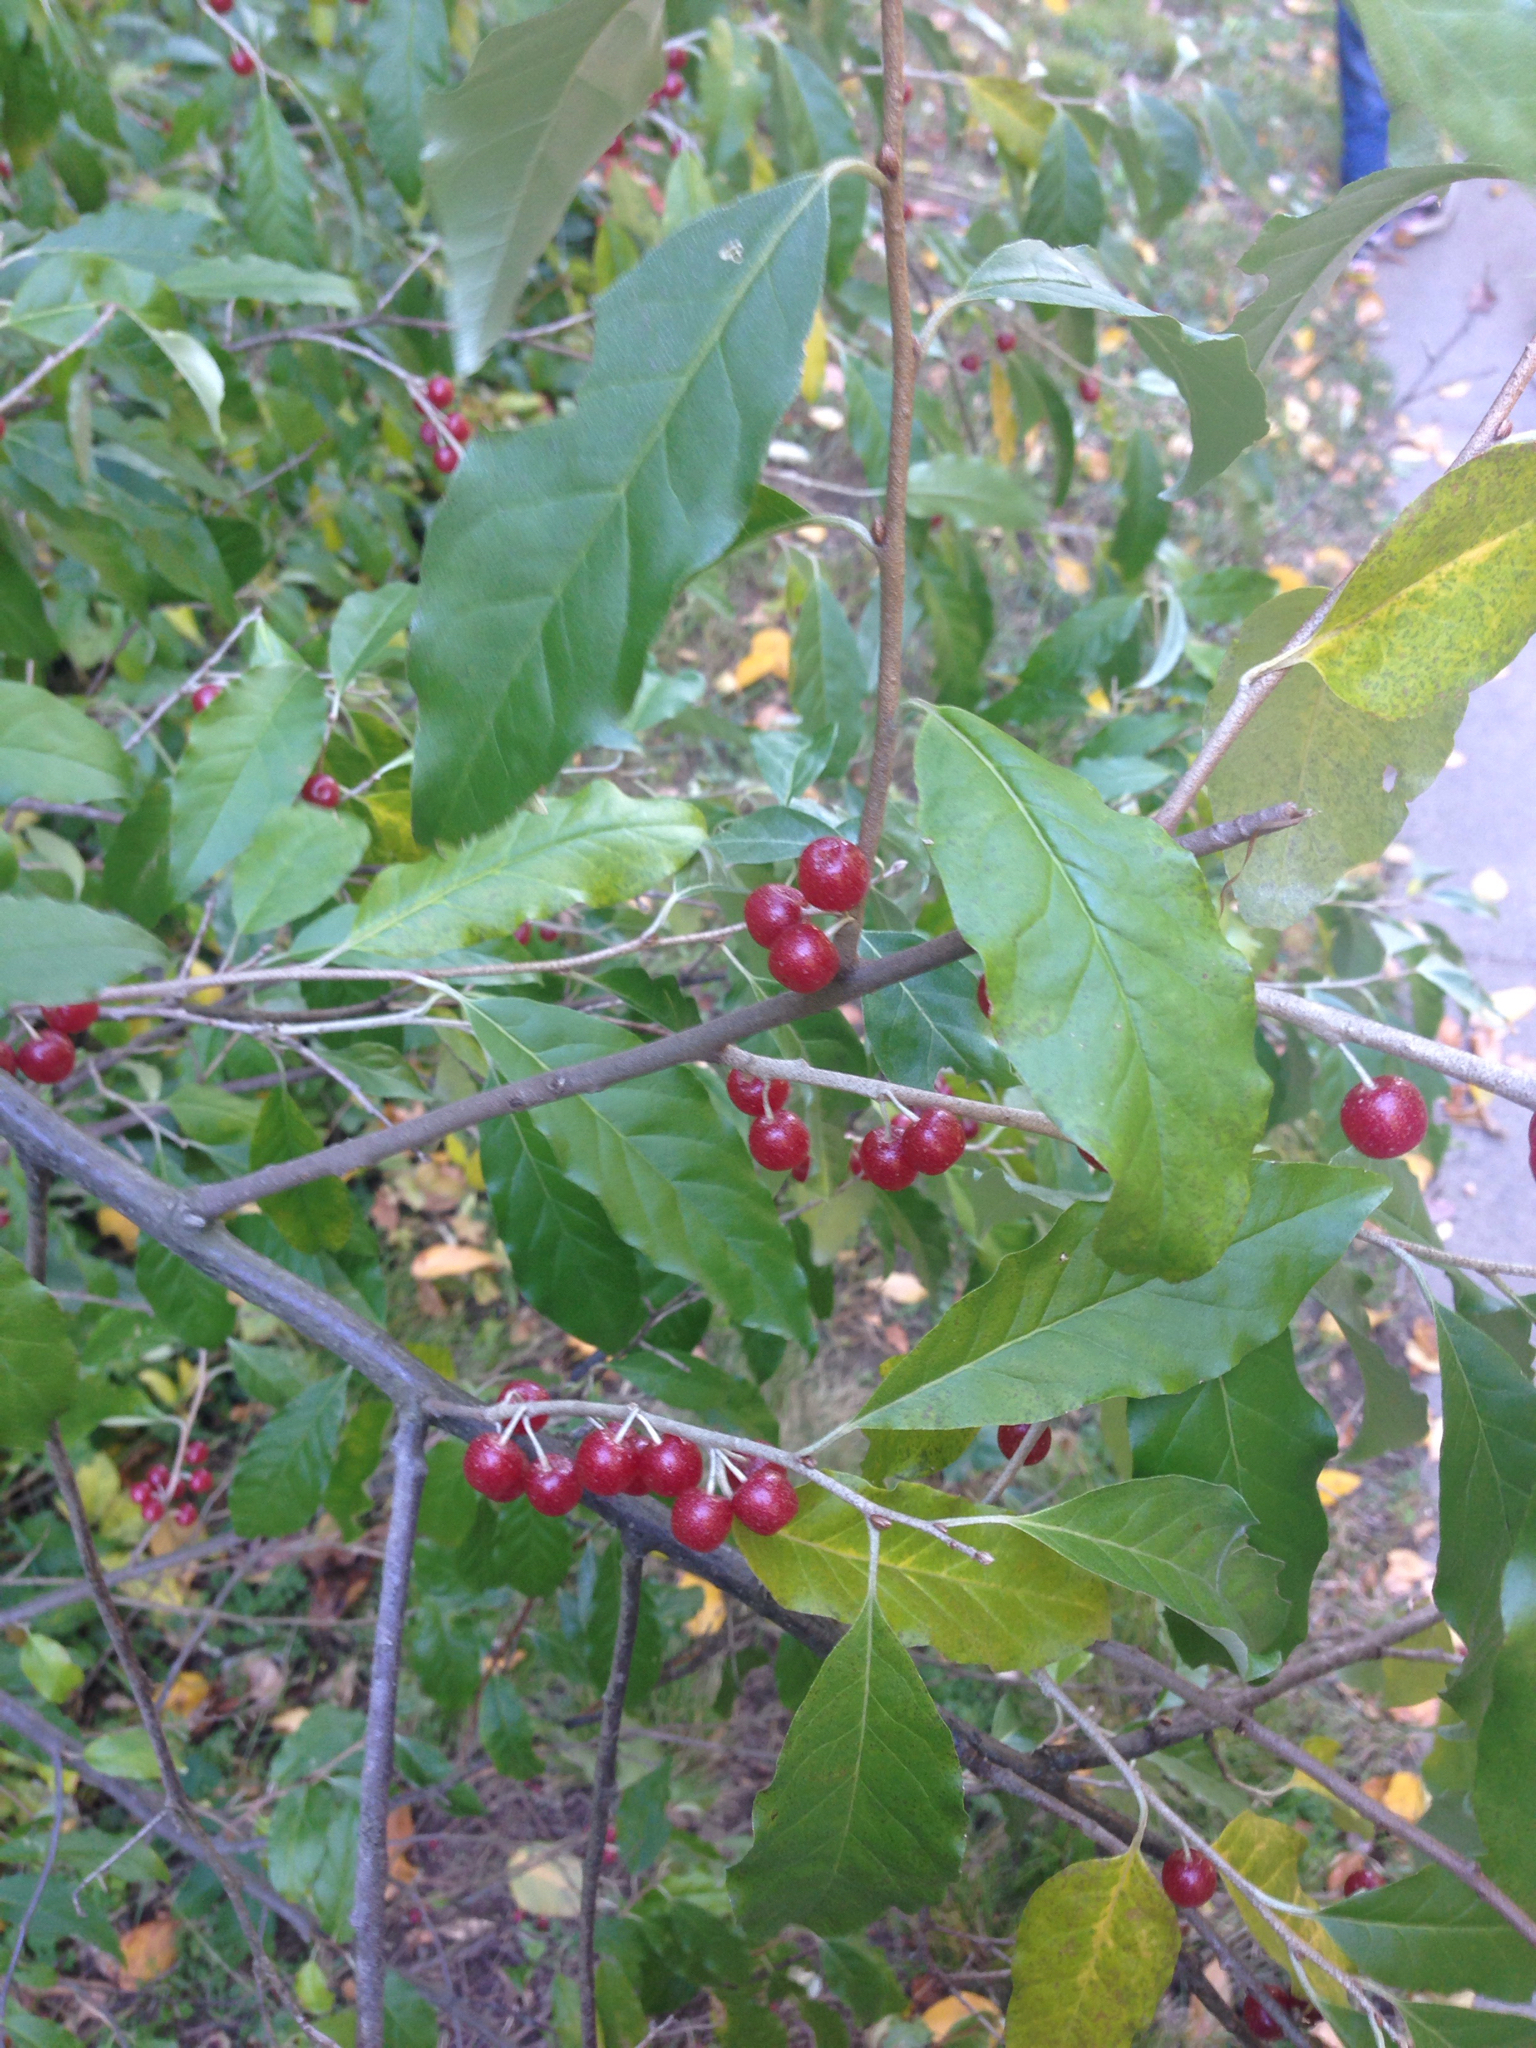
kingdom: Plantae
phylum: Tracheophyta
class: Magnoliopsida
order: Rosales
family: Elaeagnaceae
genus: Elaeagnus
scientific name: Elaeagnus umbellata
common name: Autumn olive
